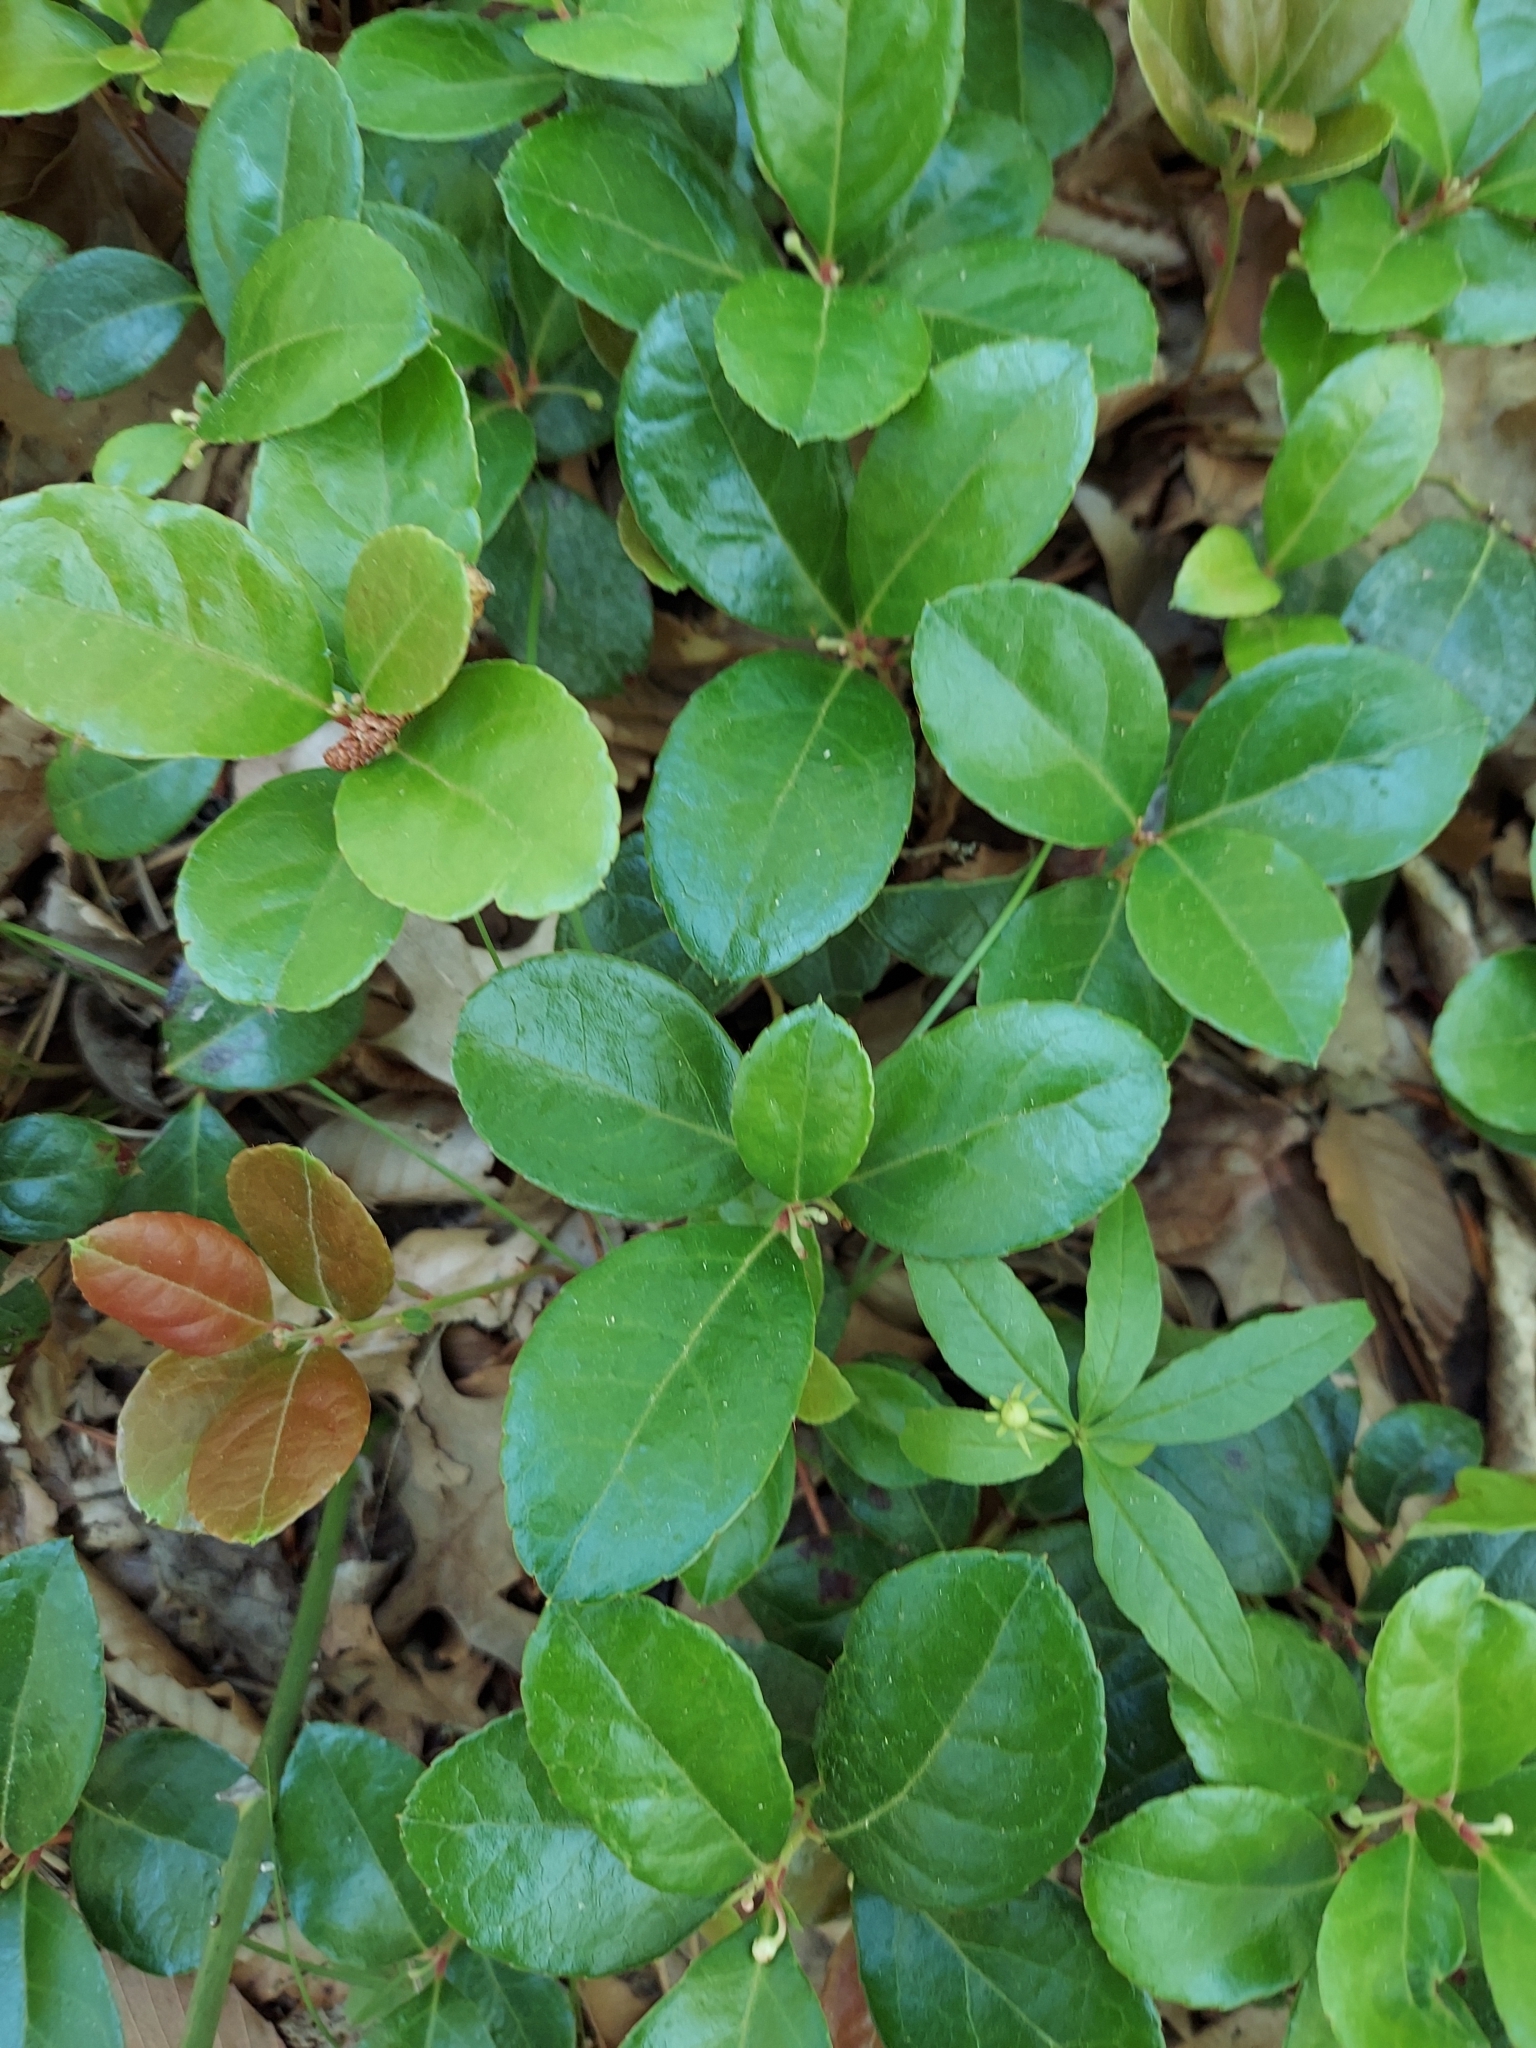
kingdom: Plantae
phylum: Tracheophyta
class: Magnoliopsida
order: Ericales
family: Ericaceae
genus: Gaultheria
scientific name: Gaultheria procumbens
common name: Checkerberry
